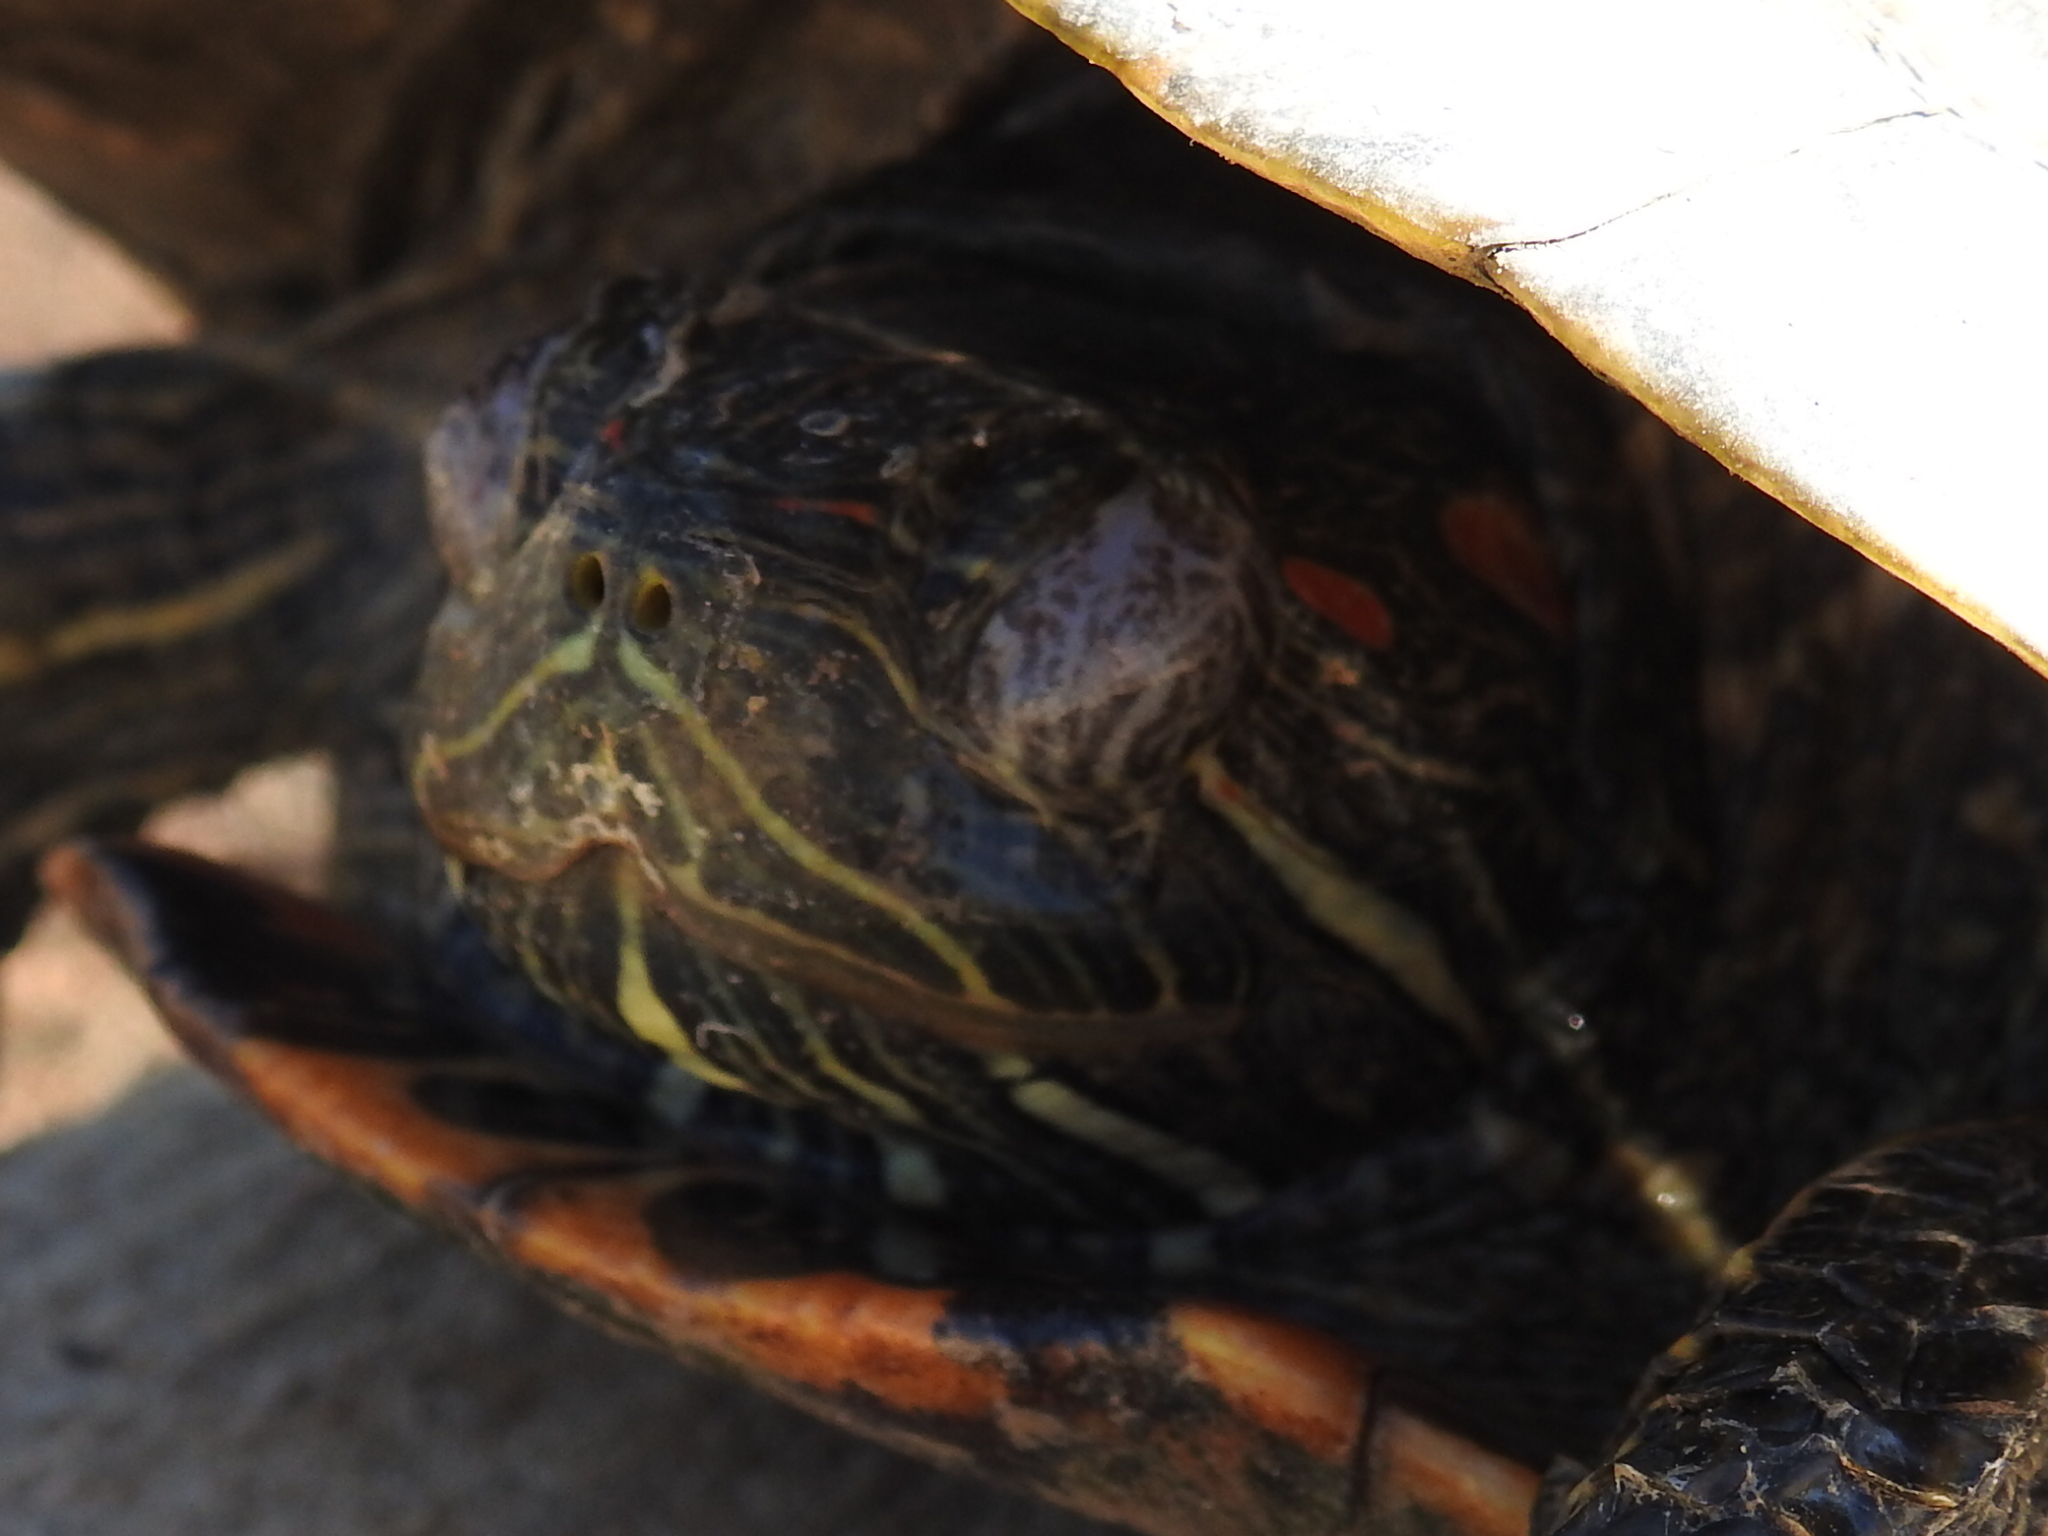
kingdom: Animalia
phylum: Chordata
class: Testudines
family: Emydidae
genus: Trachemys
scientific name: Trachemys scripta
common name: Slider
